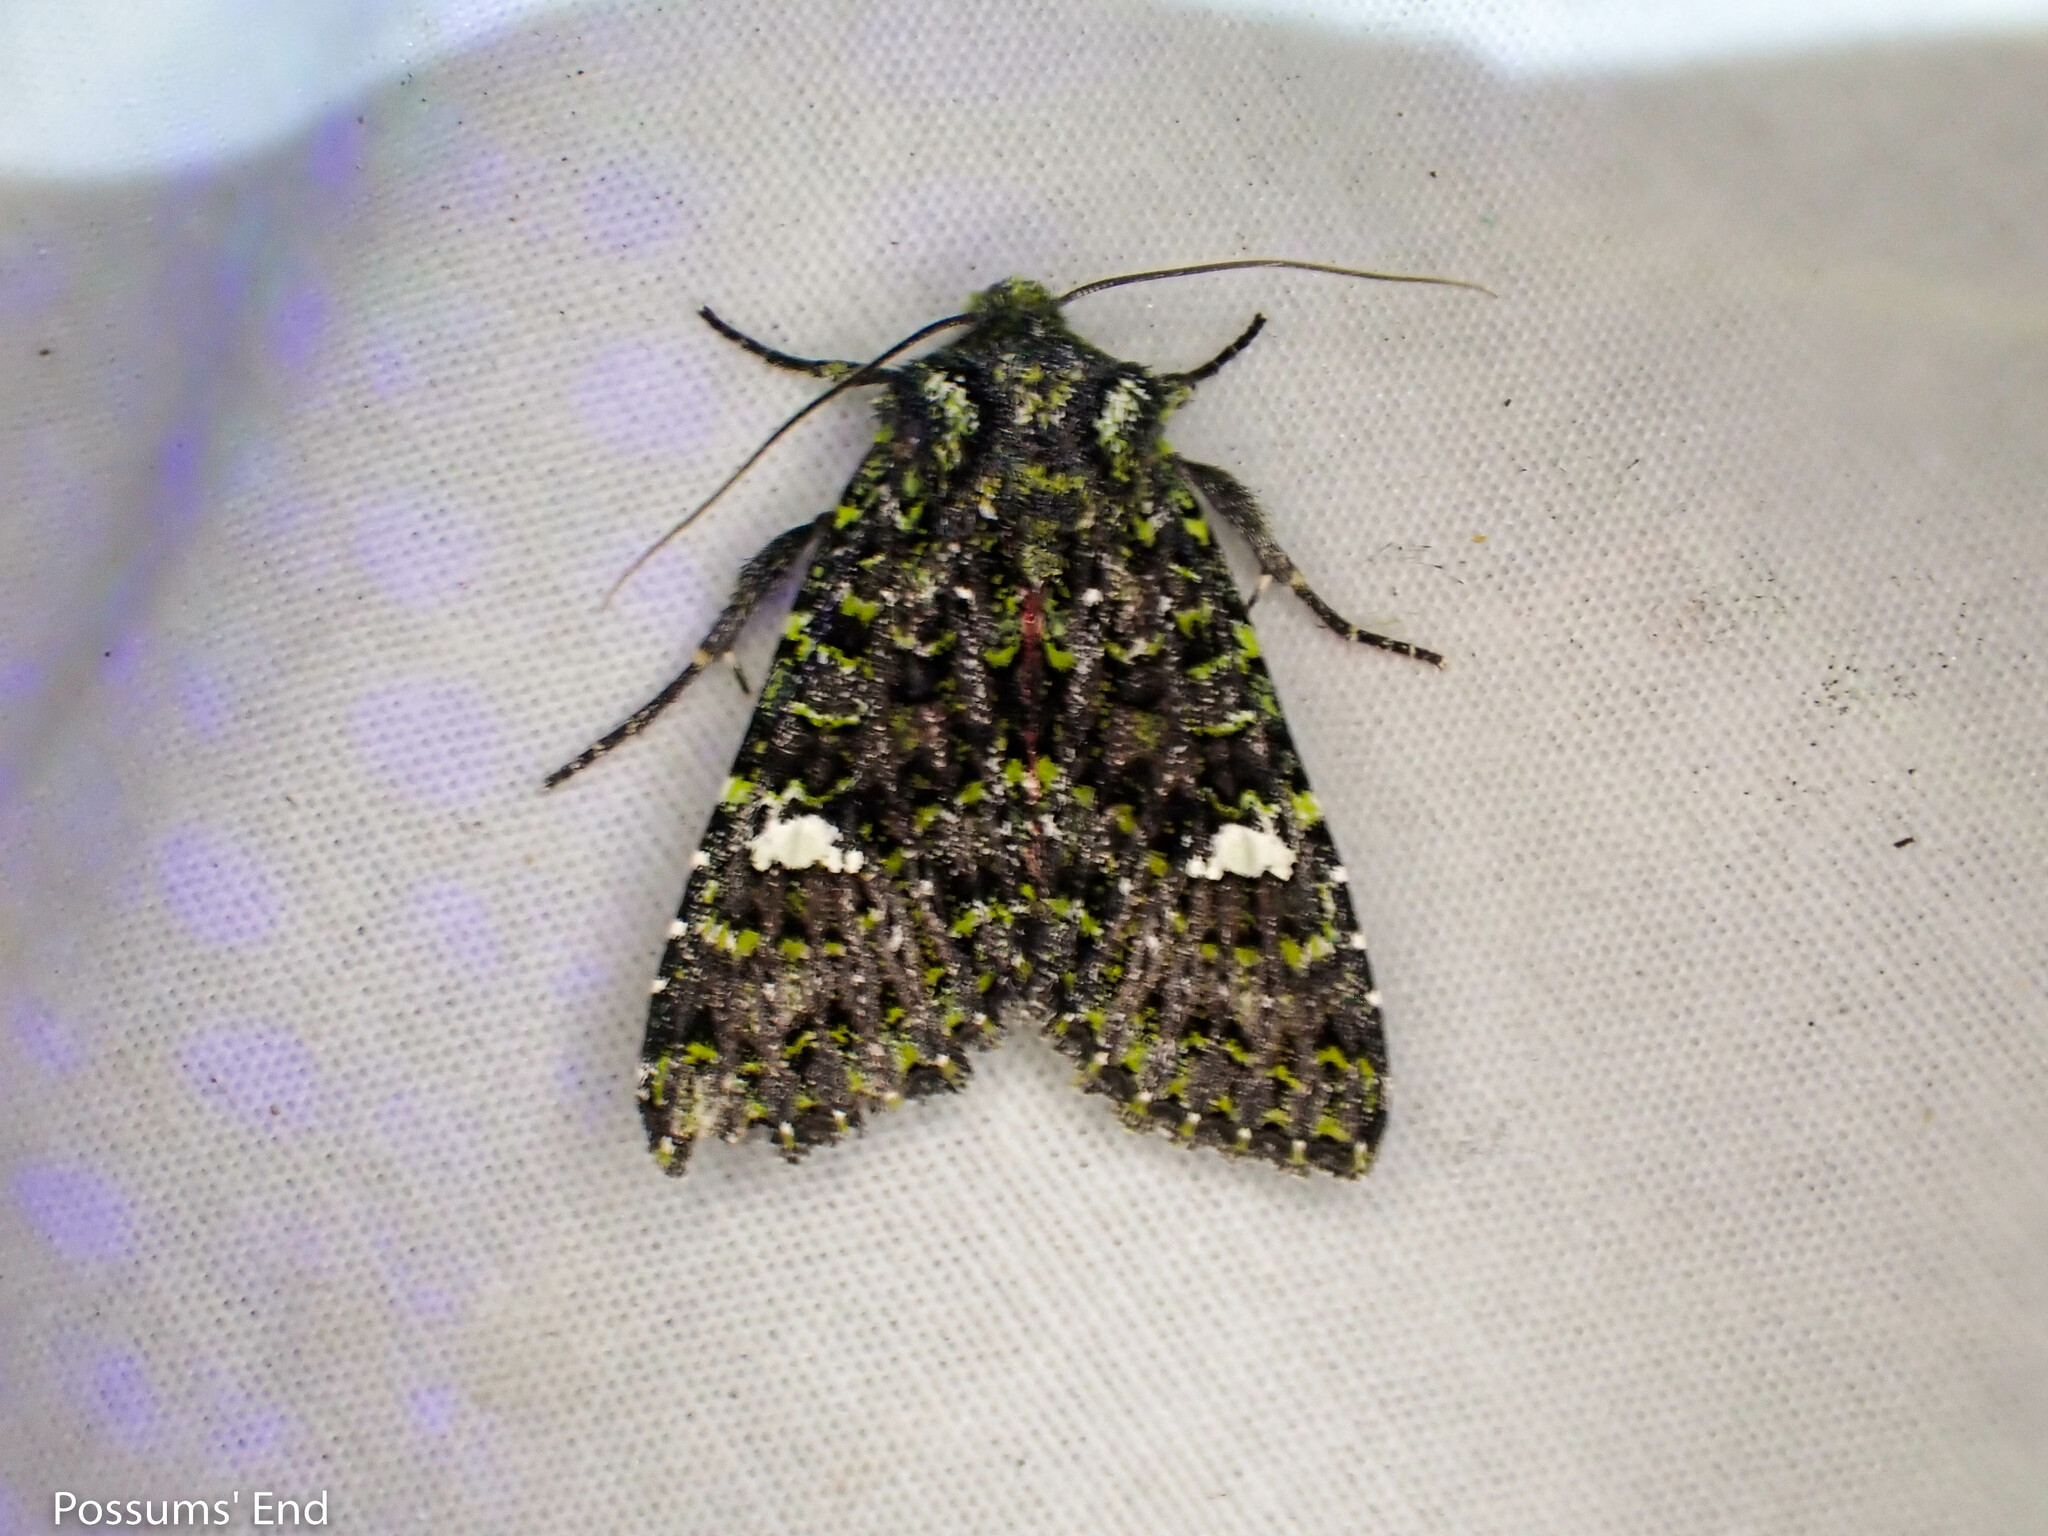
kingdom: Animalia
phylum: Arthropoda
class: Insecta
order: Lepidoptera
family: Noctuidae
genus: Meterana
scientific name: Meterana meyricci
